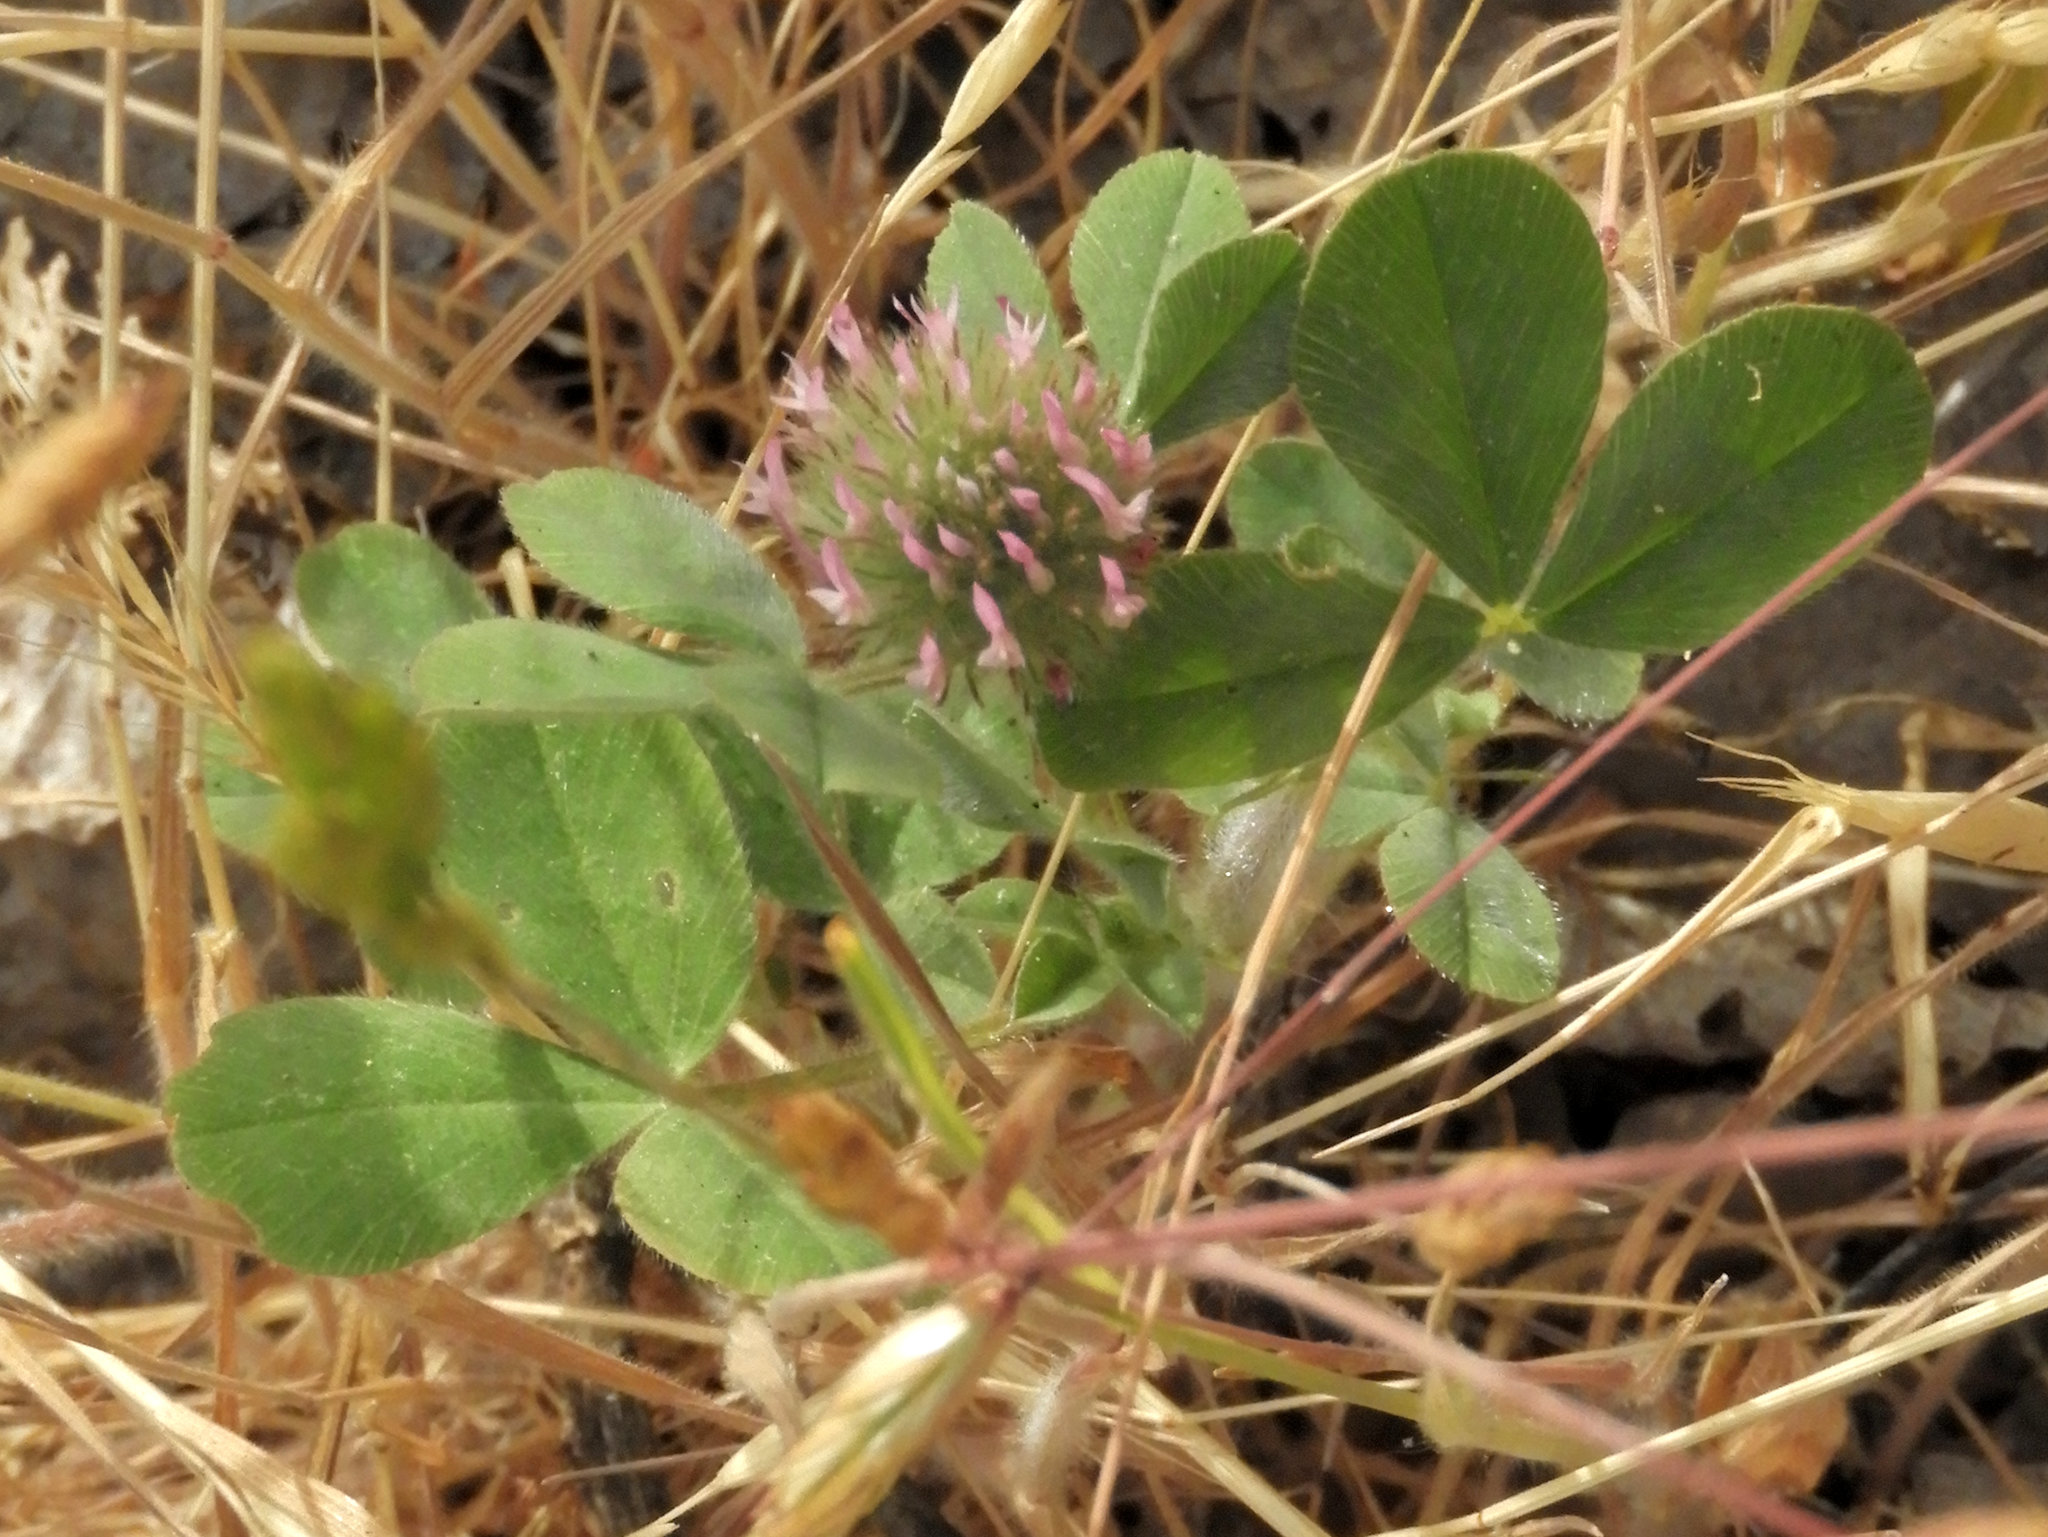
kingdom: Plantae
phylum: Tracheophyta
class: Magnoliopsida
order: Fabales
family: Fabaceae
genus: Trifolium
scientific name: Trifolium hirtum
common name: Rose clover
